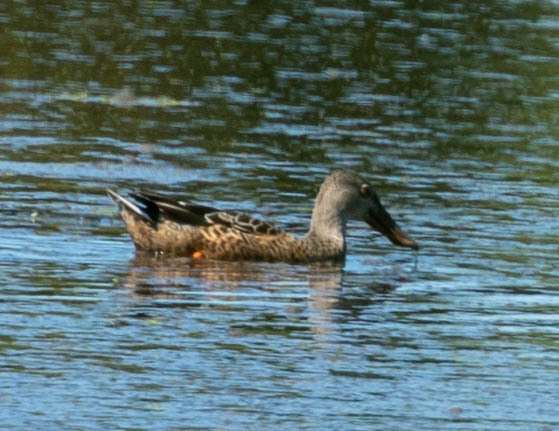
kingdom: Animalia
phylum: Chordata
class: Aves
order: Anseriformes
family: Anatidae
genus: Spatula
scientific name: Spatula clypeata
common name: Northern shoveler
